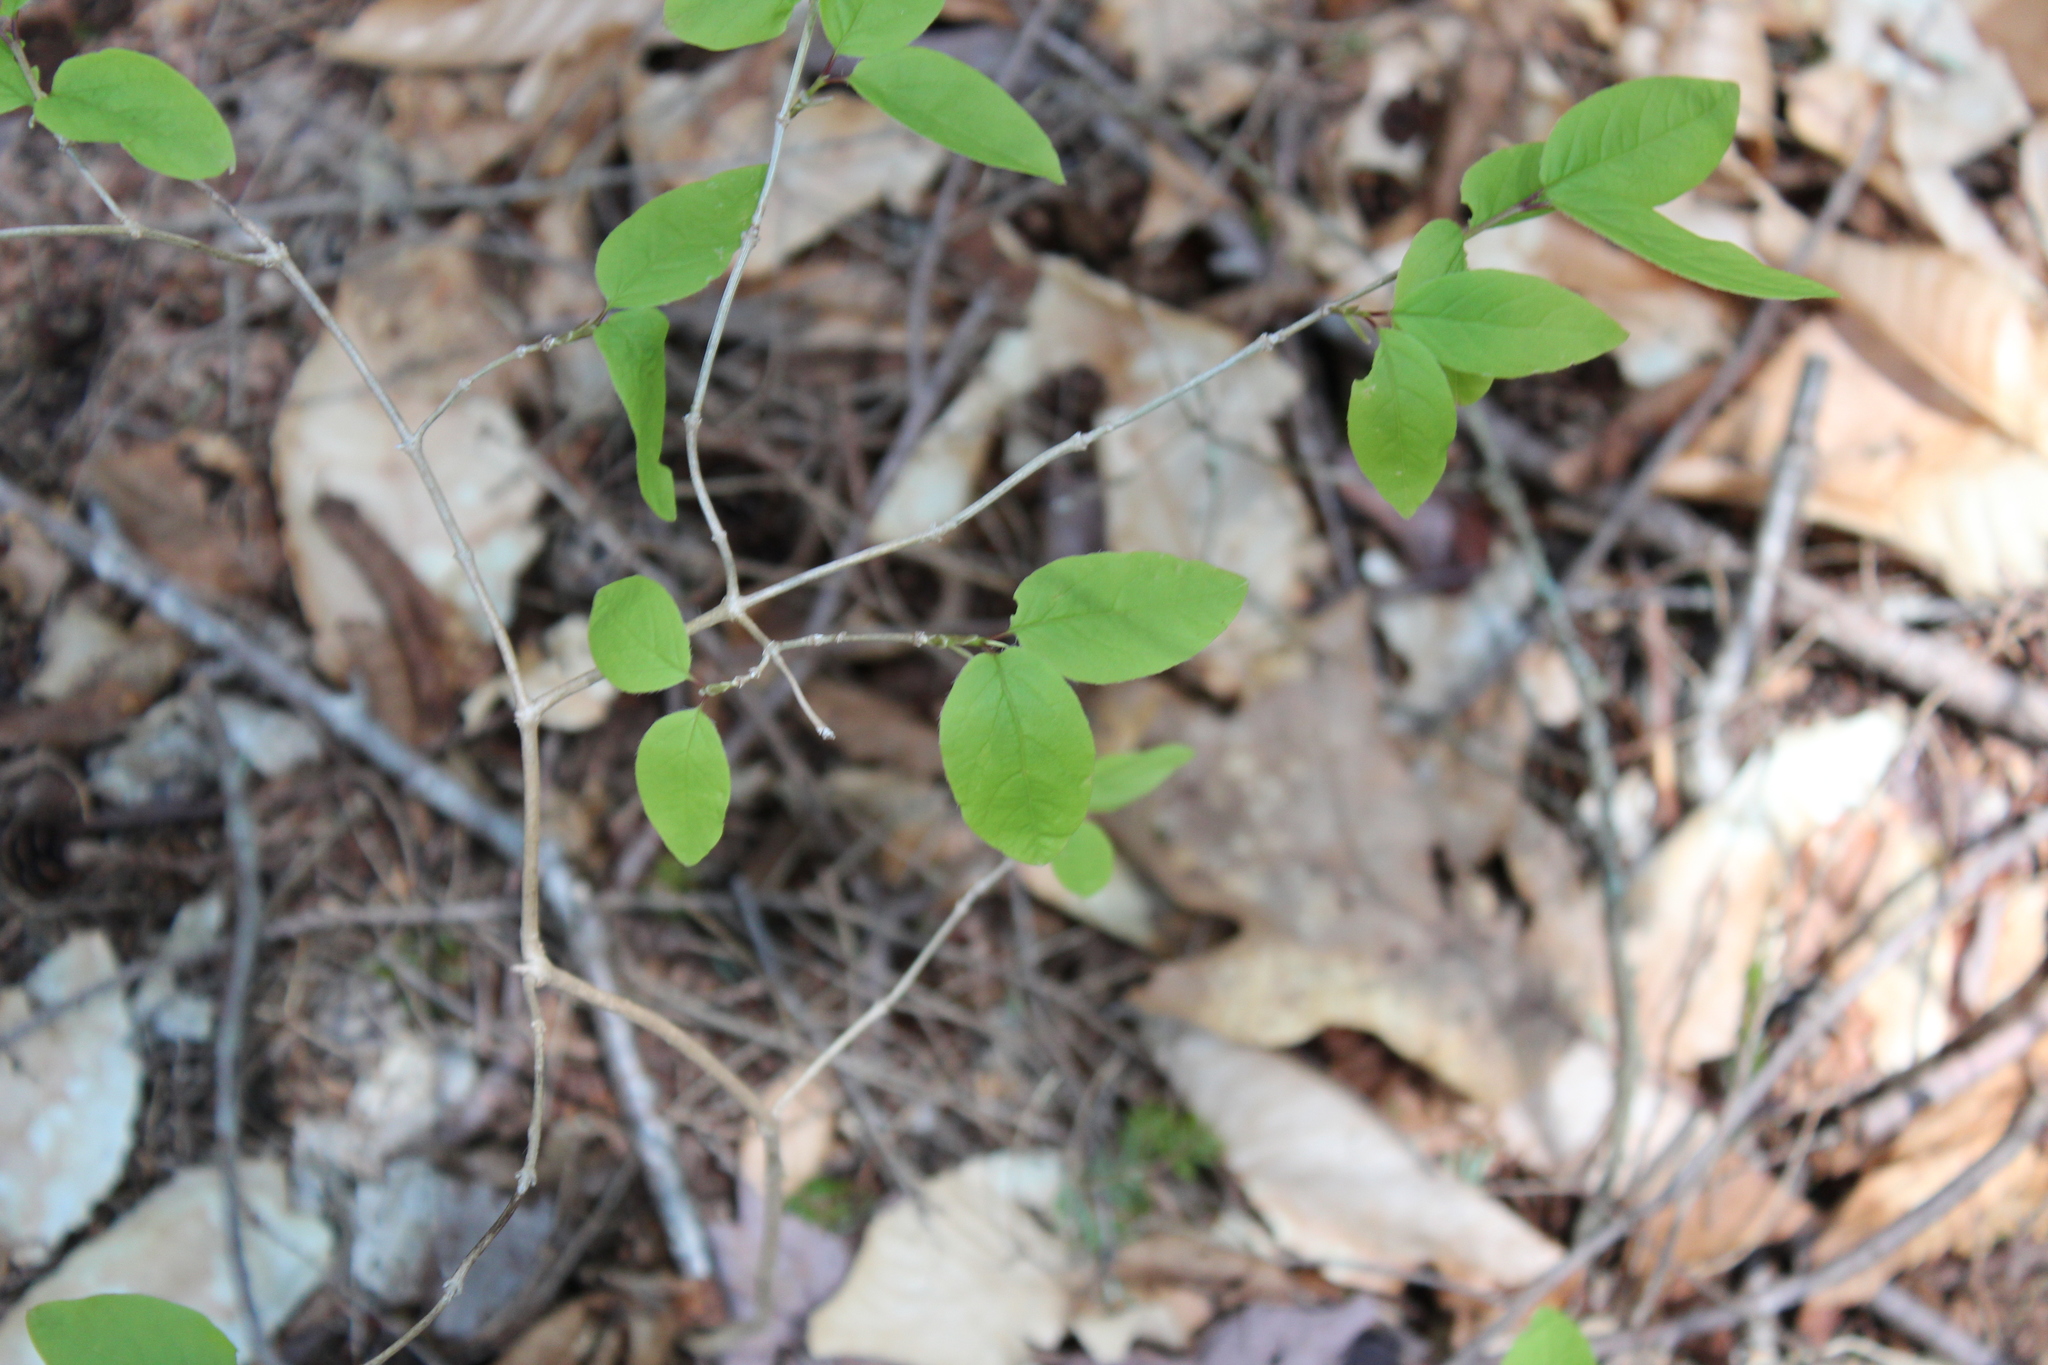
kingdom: Plantae
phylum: Tracheophyta
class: Magnoliopsida
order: Dipsacales
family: Caprifoliaceae
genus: Lonicera
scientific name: Lonicera canadensis
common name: American fly-honeysuckle
